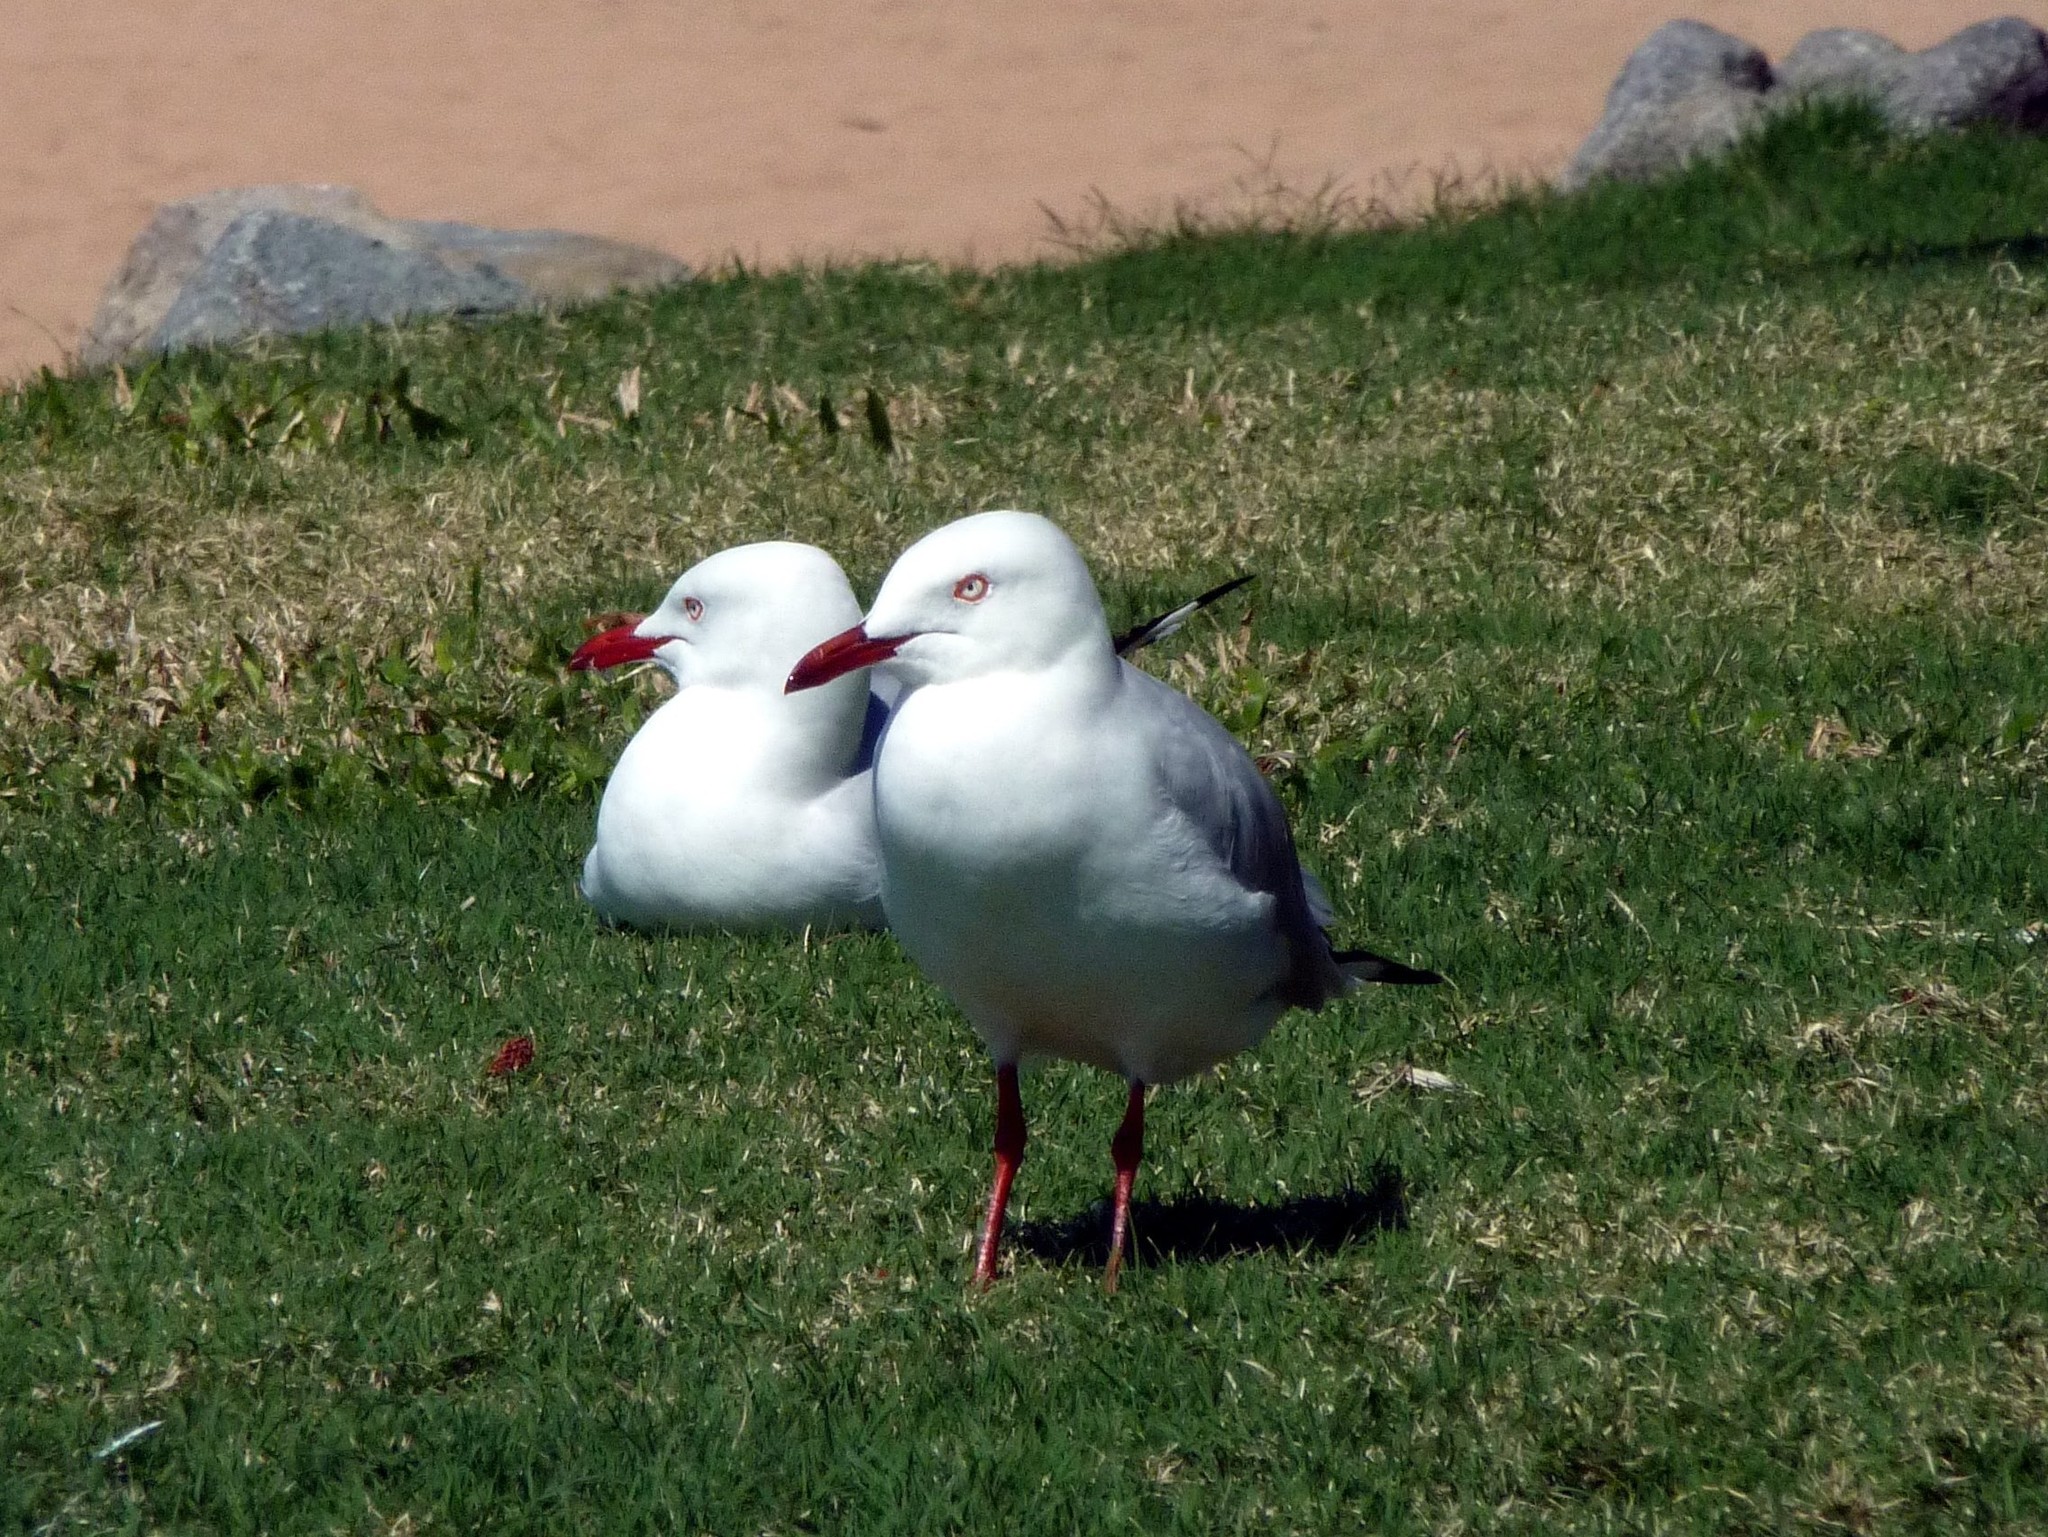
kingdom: Animalia
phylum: Chordata
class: Aves
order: Charadriiformes
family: Laridae
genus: Chroicocephalus
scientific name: Chroicocephalus novaehollandiae
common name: Silver gull
